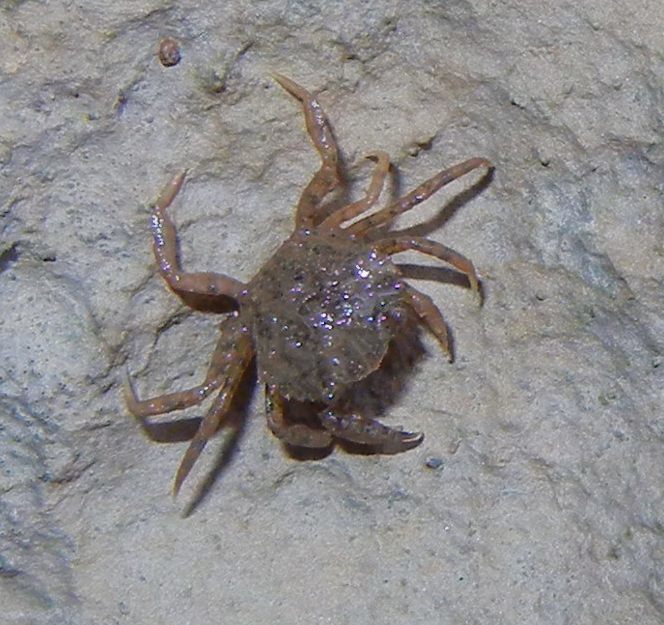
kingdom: Animalia
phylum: Arthropoda
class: Malacostraca
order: Decapoda
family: Carcinidae
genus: Carcinus
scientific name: Carcinus maenas
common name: European green crab
